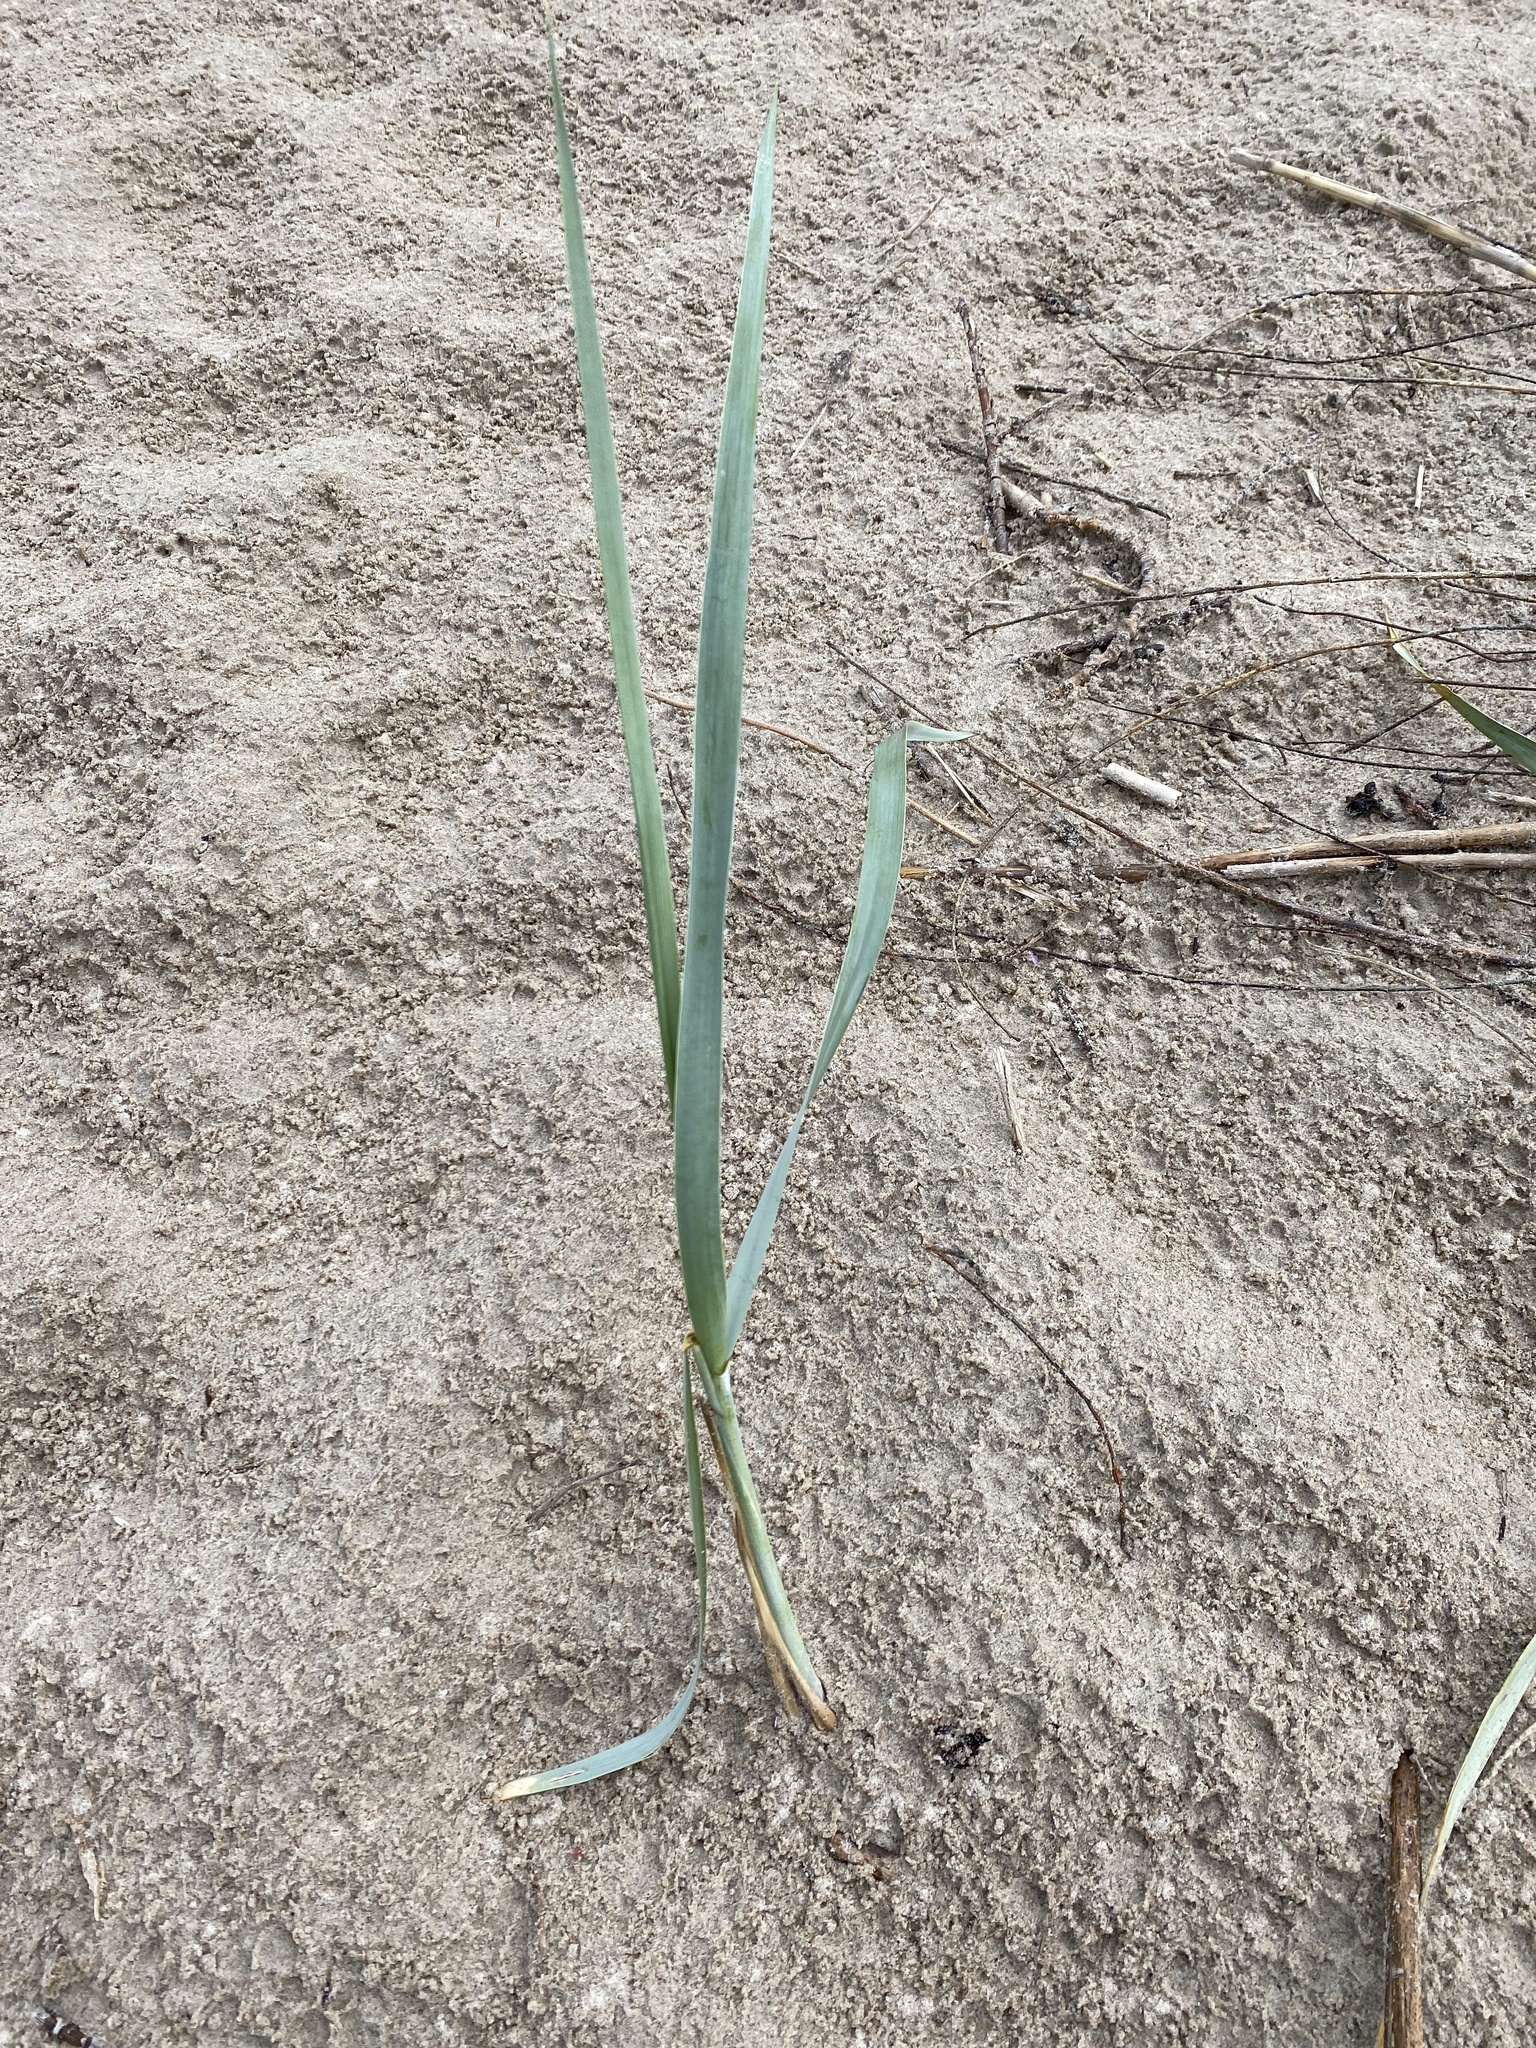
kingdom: Plantae
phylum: Tracheophyta
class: Liliopsida
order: Poales
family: Poaceae
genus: Leymus
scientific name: Leymus arenarius
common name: Lyme-grass
